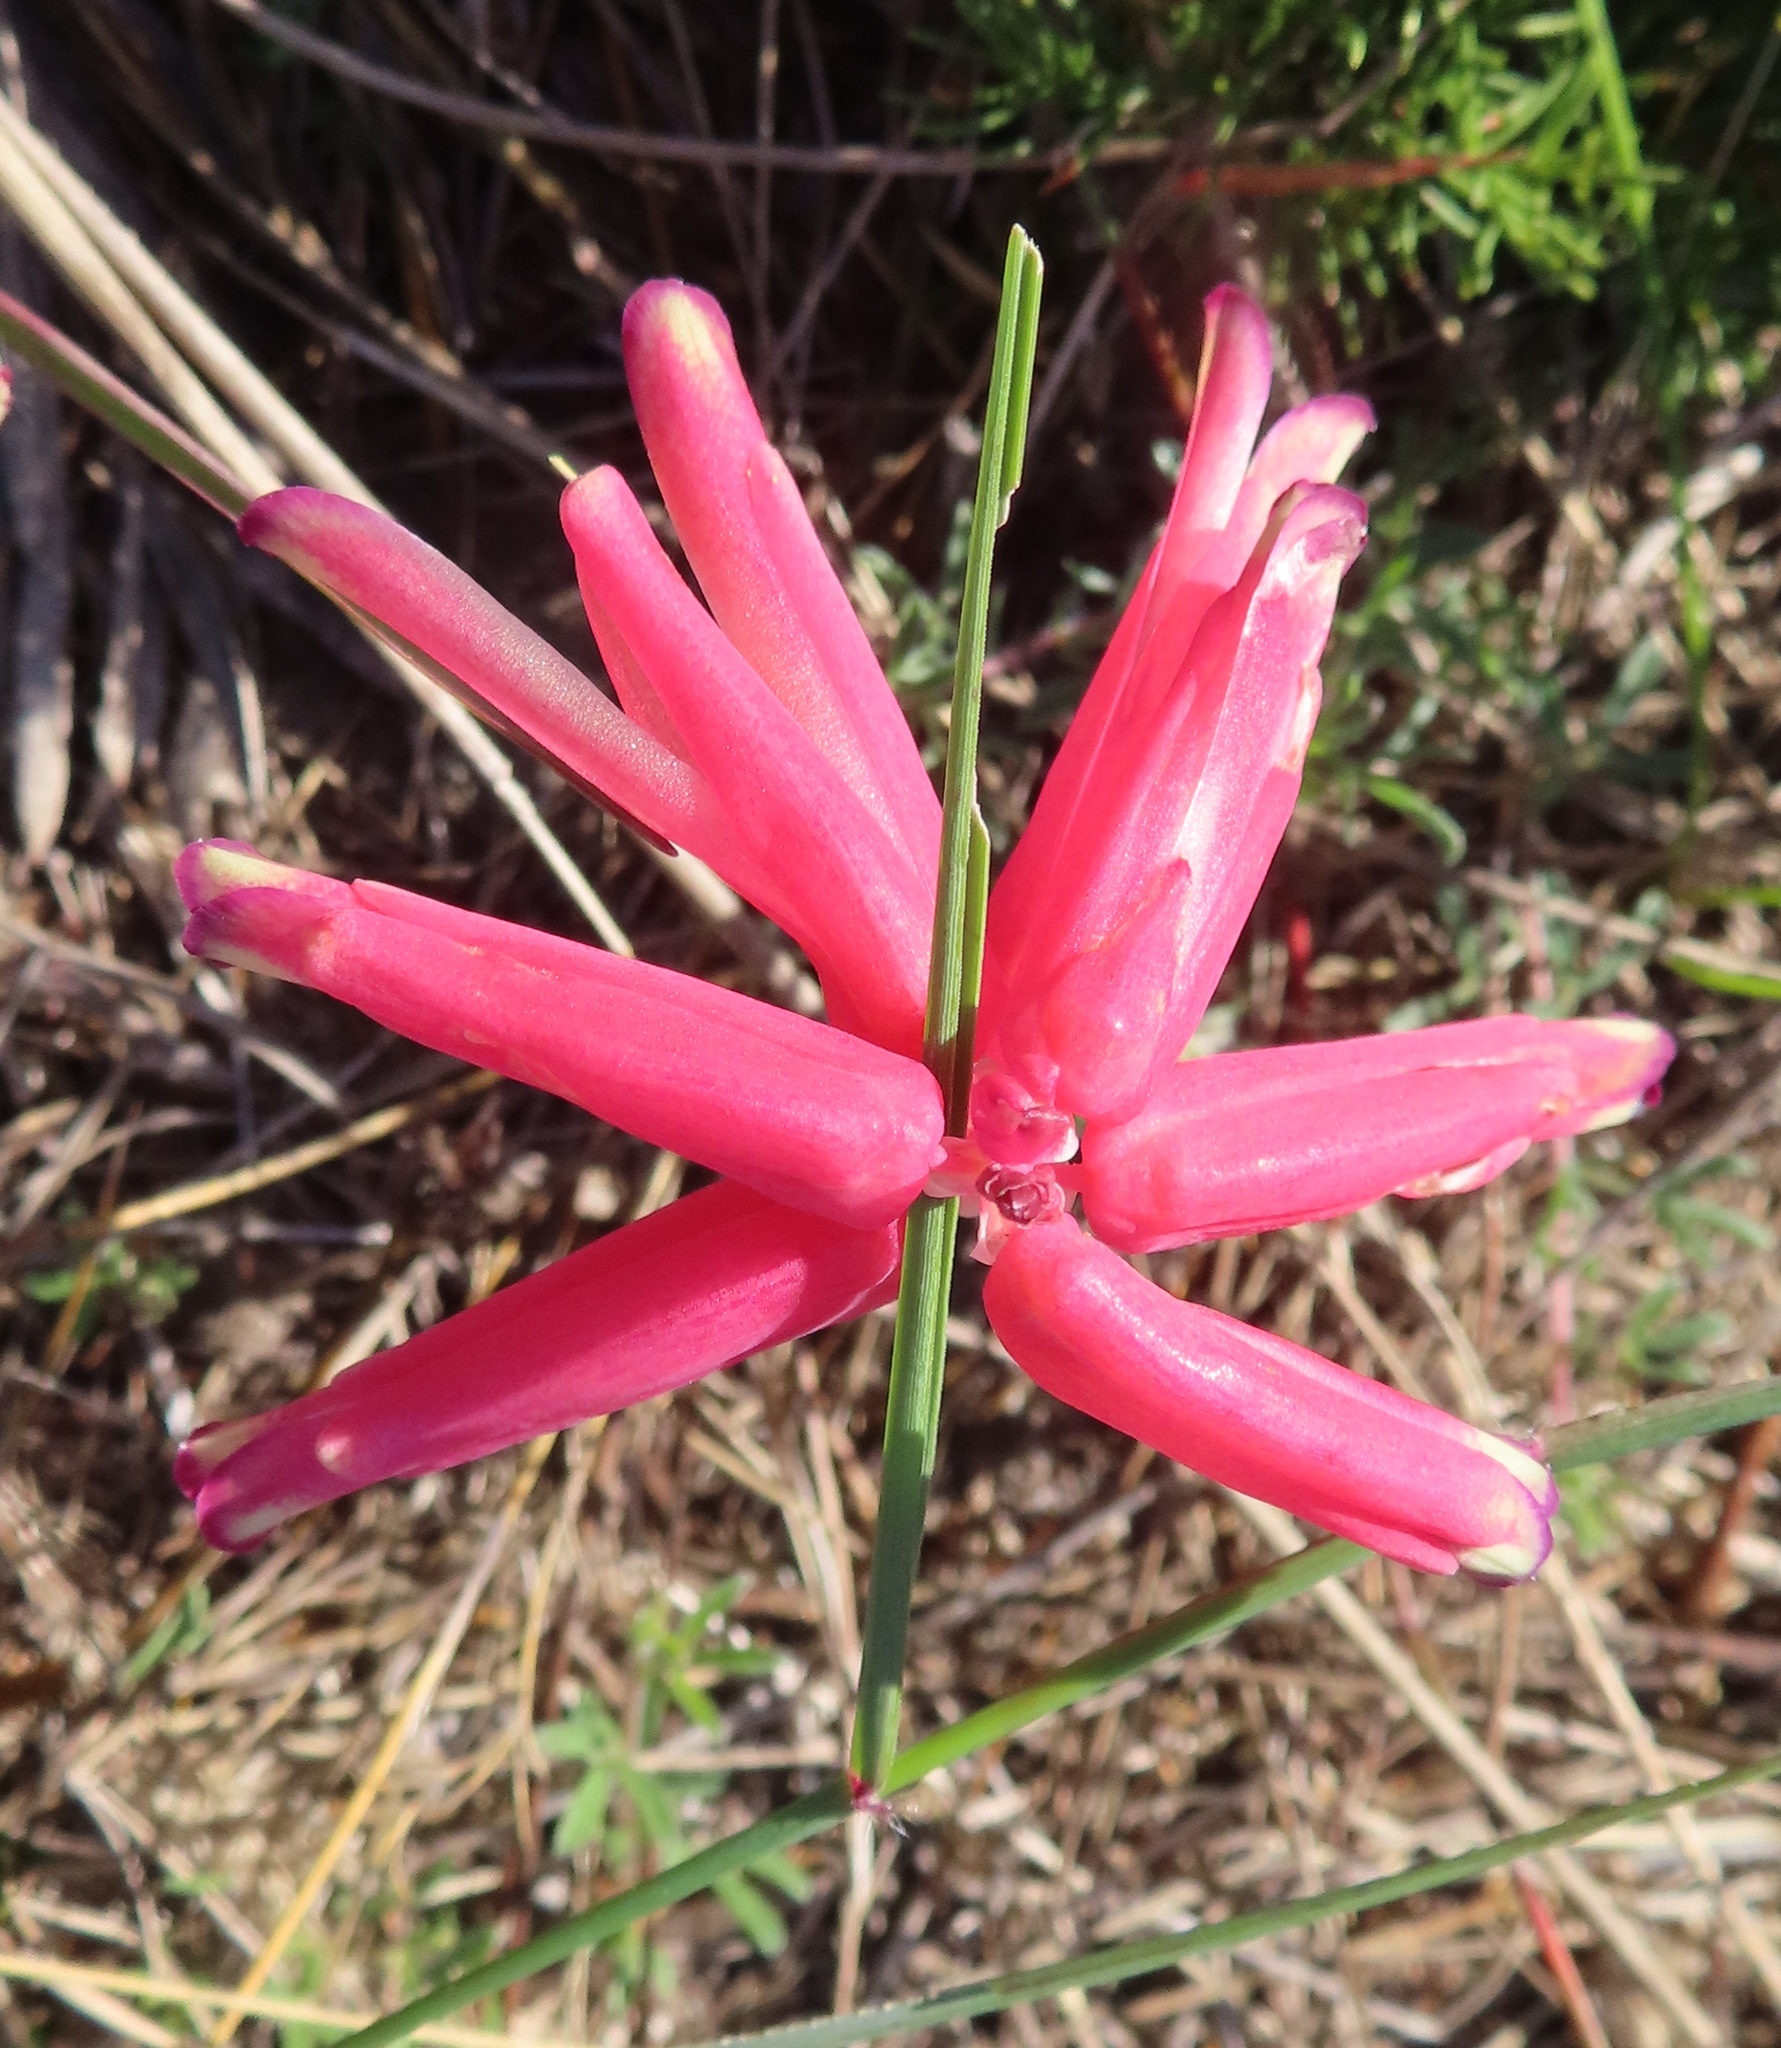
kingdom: Plantae
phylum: Tracheophyta
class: Liliopsida
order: Asparagales
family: Asparagaceae
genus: Lachenalia
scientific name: Lachenalia punctata
